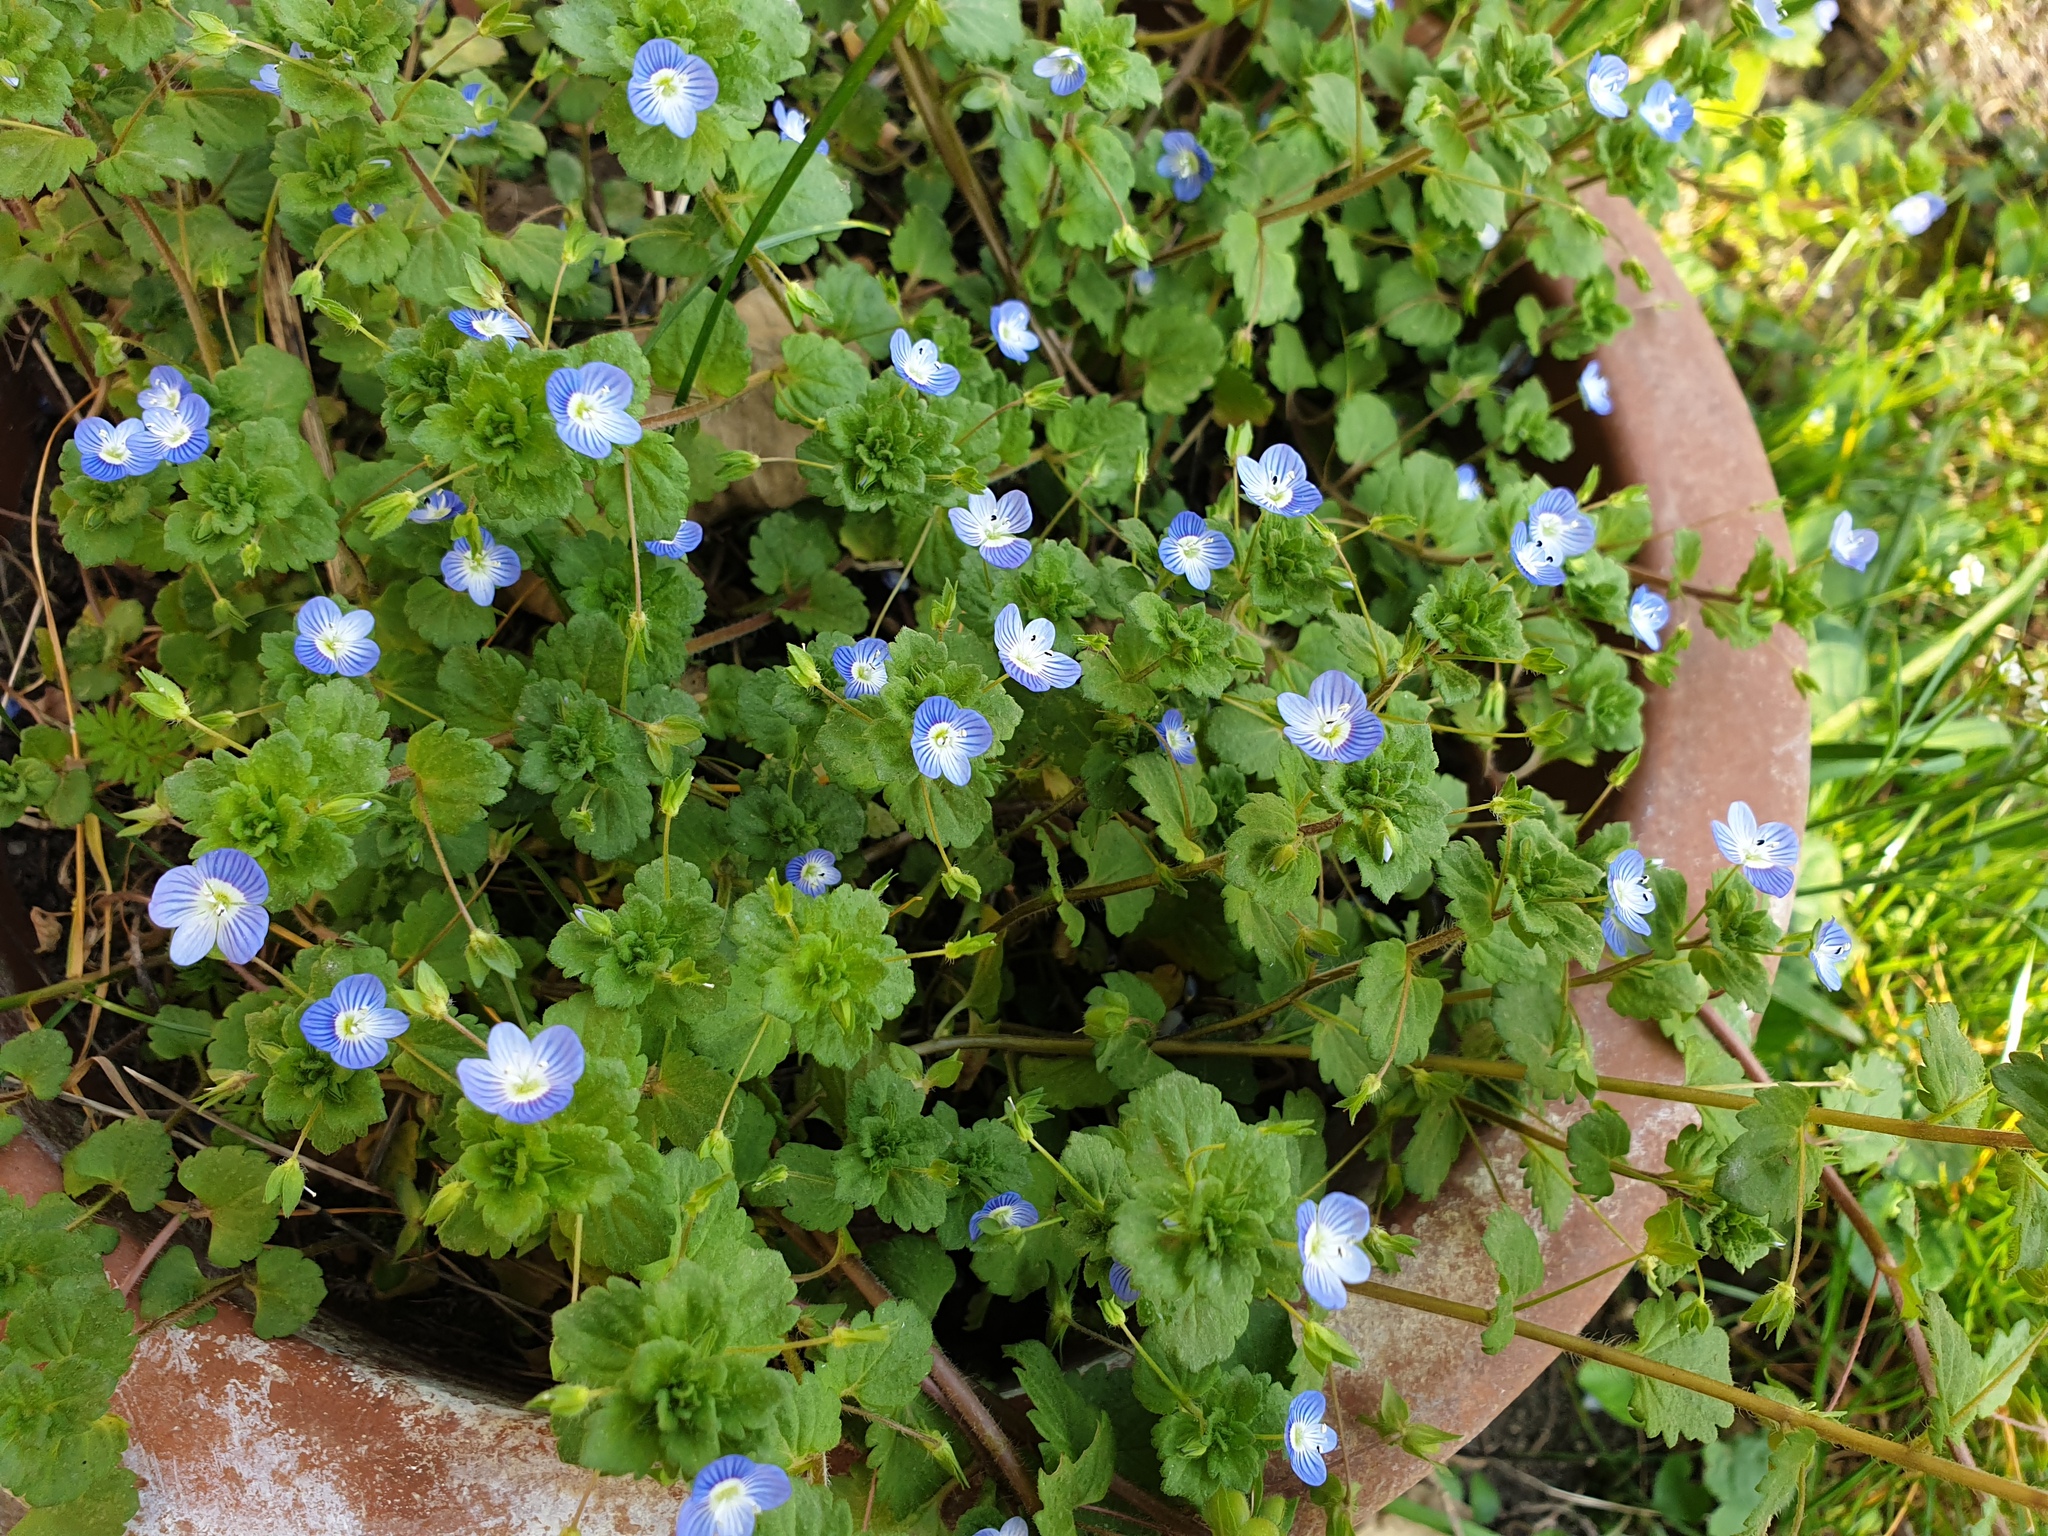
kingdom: Plantae
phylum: Tracheophyta
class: Magnoliopsida
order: Lamiales
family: Plantaginaceae
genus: Veronica
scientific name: Veronica persica
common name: Common field-speedwell
